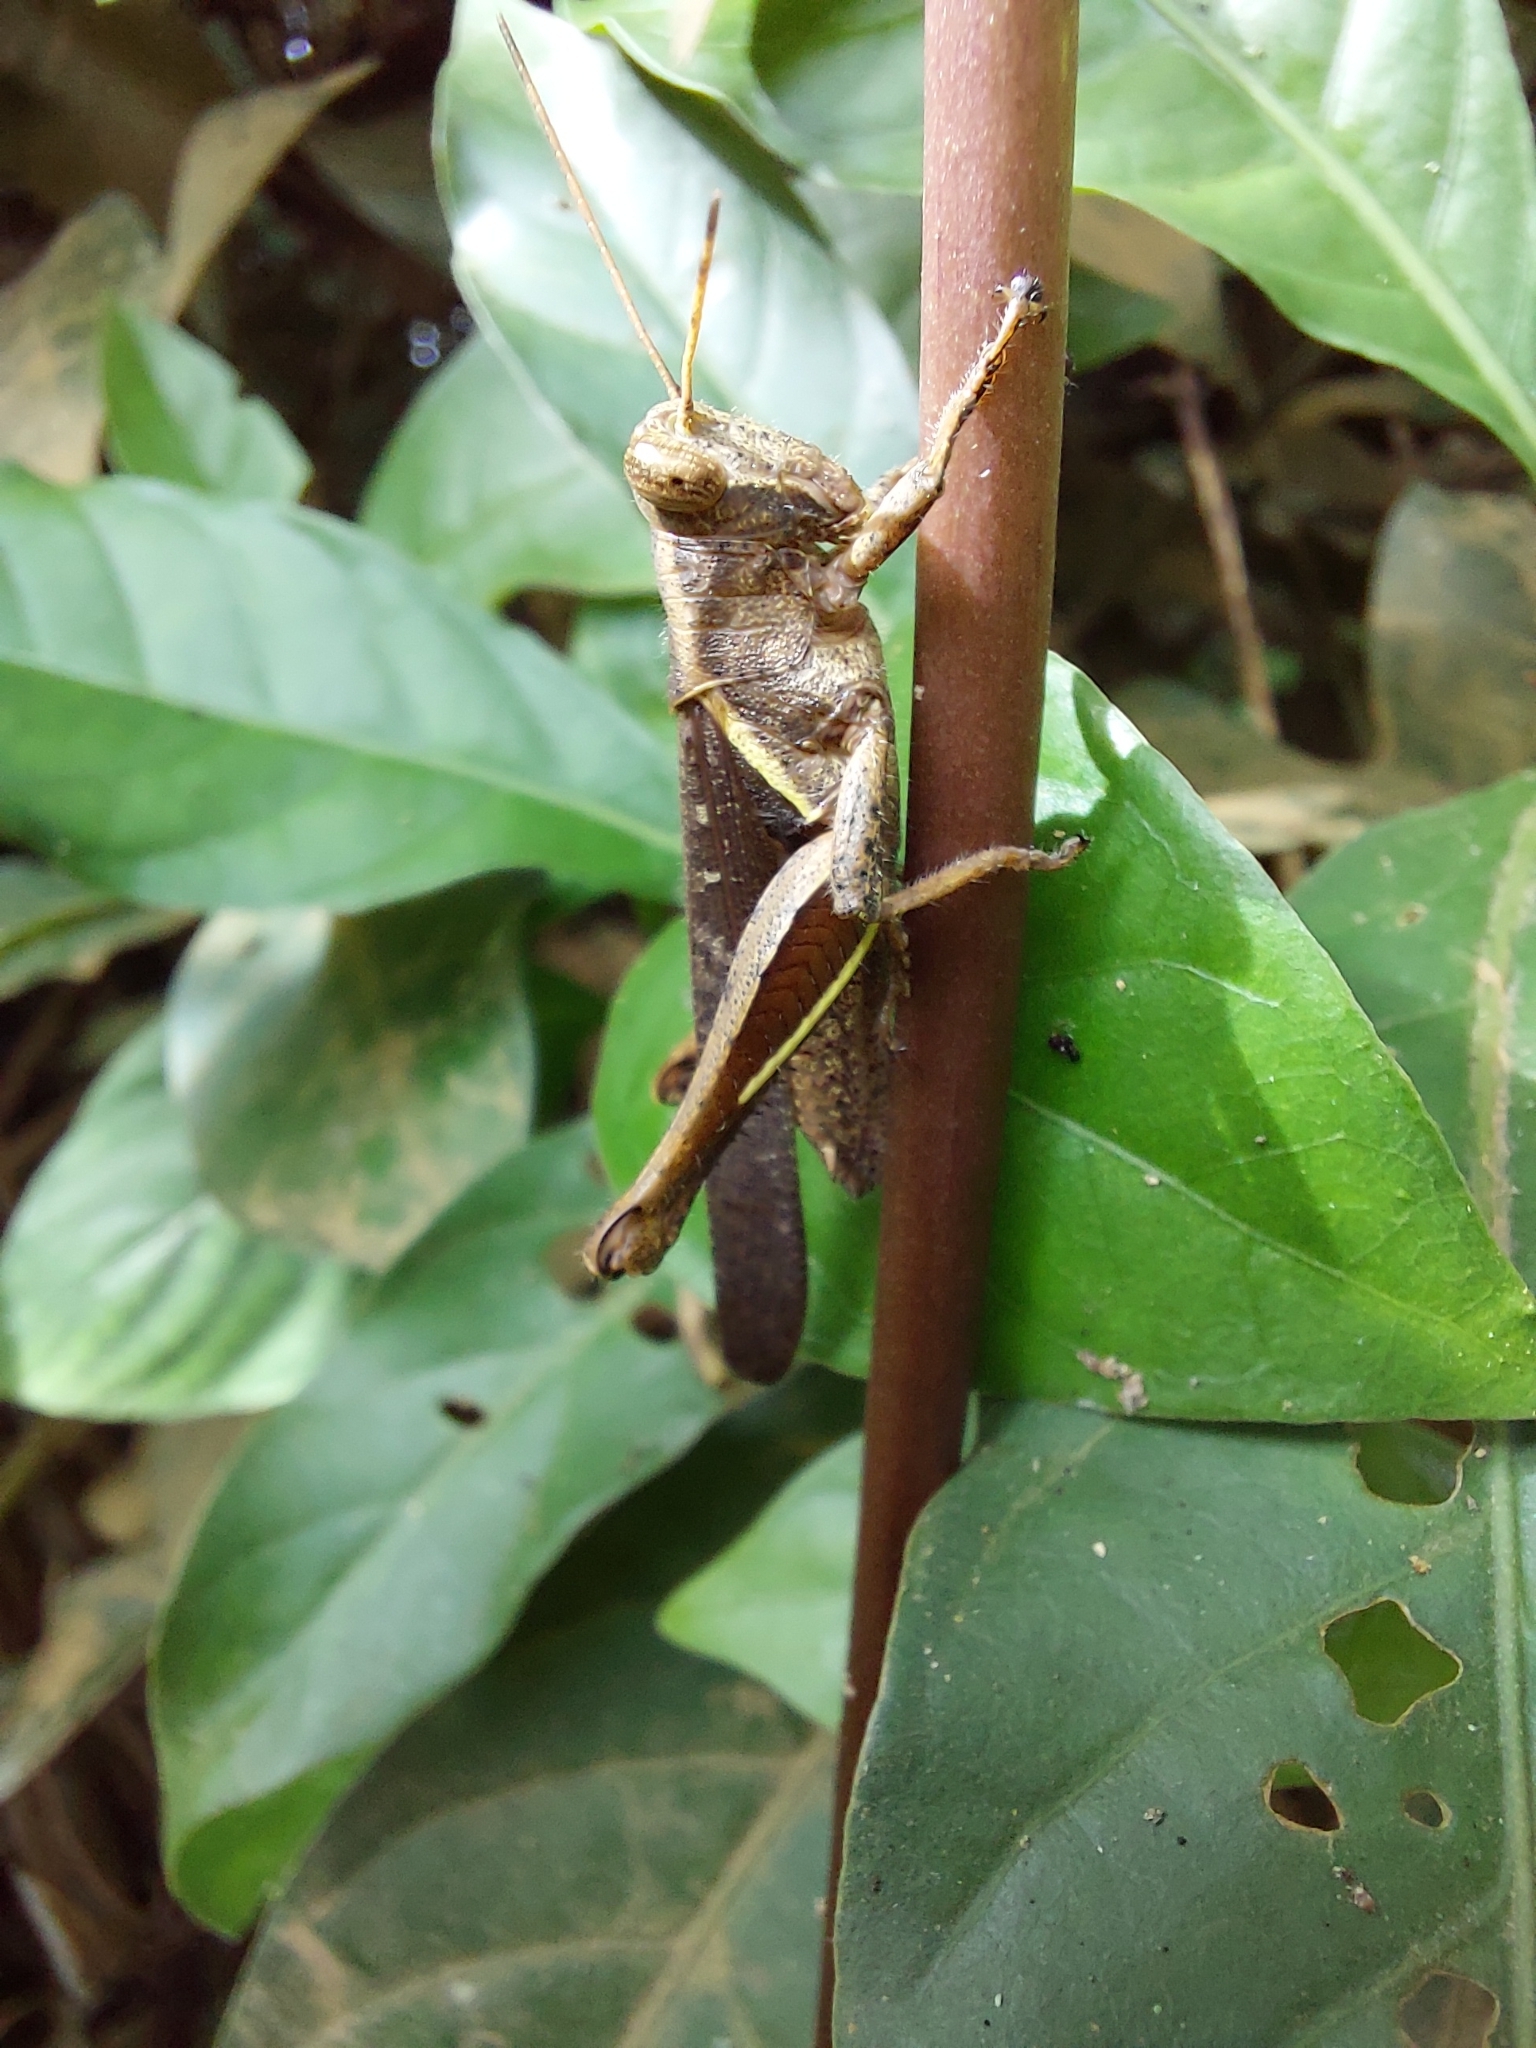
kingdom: Animalia
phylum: Arthropoda
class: Insecta
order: Orthoptera
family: Acrididae
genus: Abracris
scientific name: Abracris flavolineata
